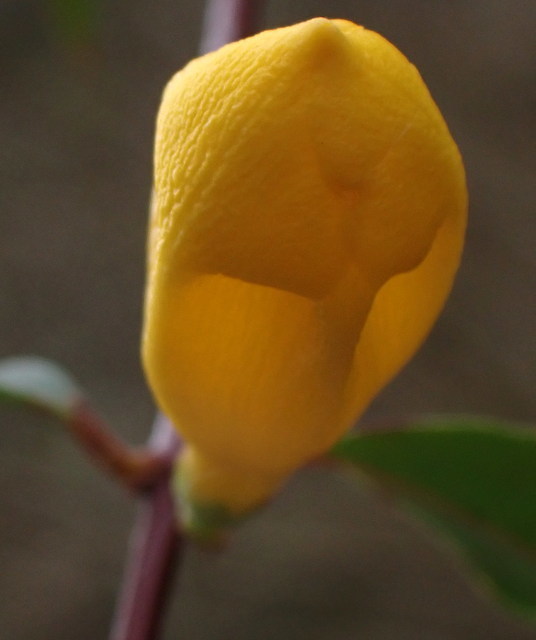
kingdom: Plantae
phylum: Tracheophyta
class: Magnoliopsida
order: Gentianales
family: Gelsemiaceae
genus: Gelsemium
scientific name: Gelsemium sempervirens
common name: Carolina-jasmine
